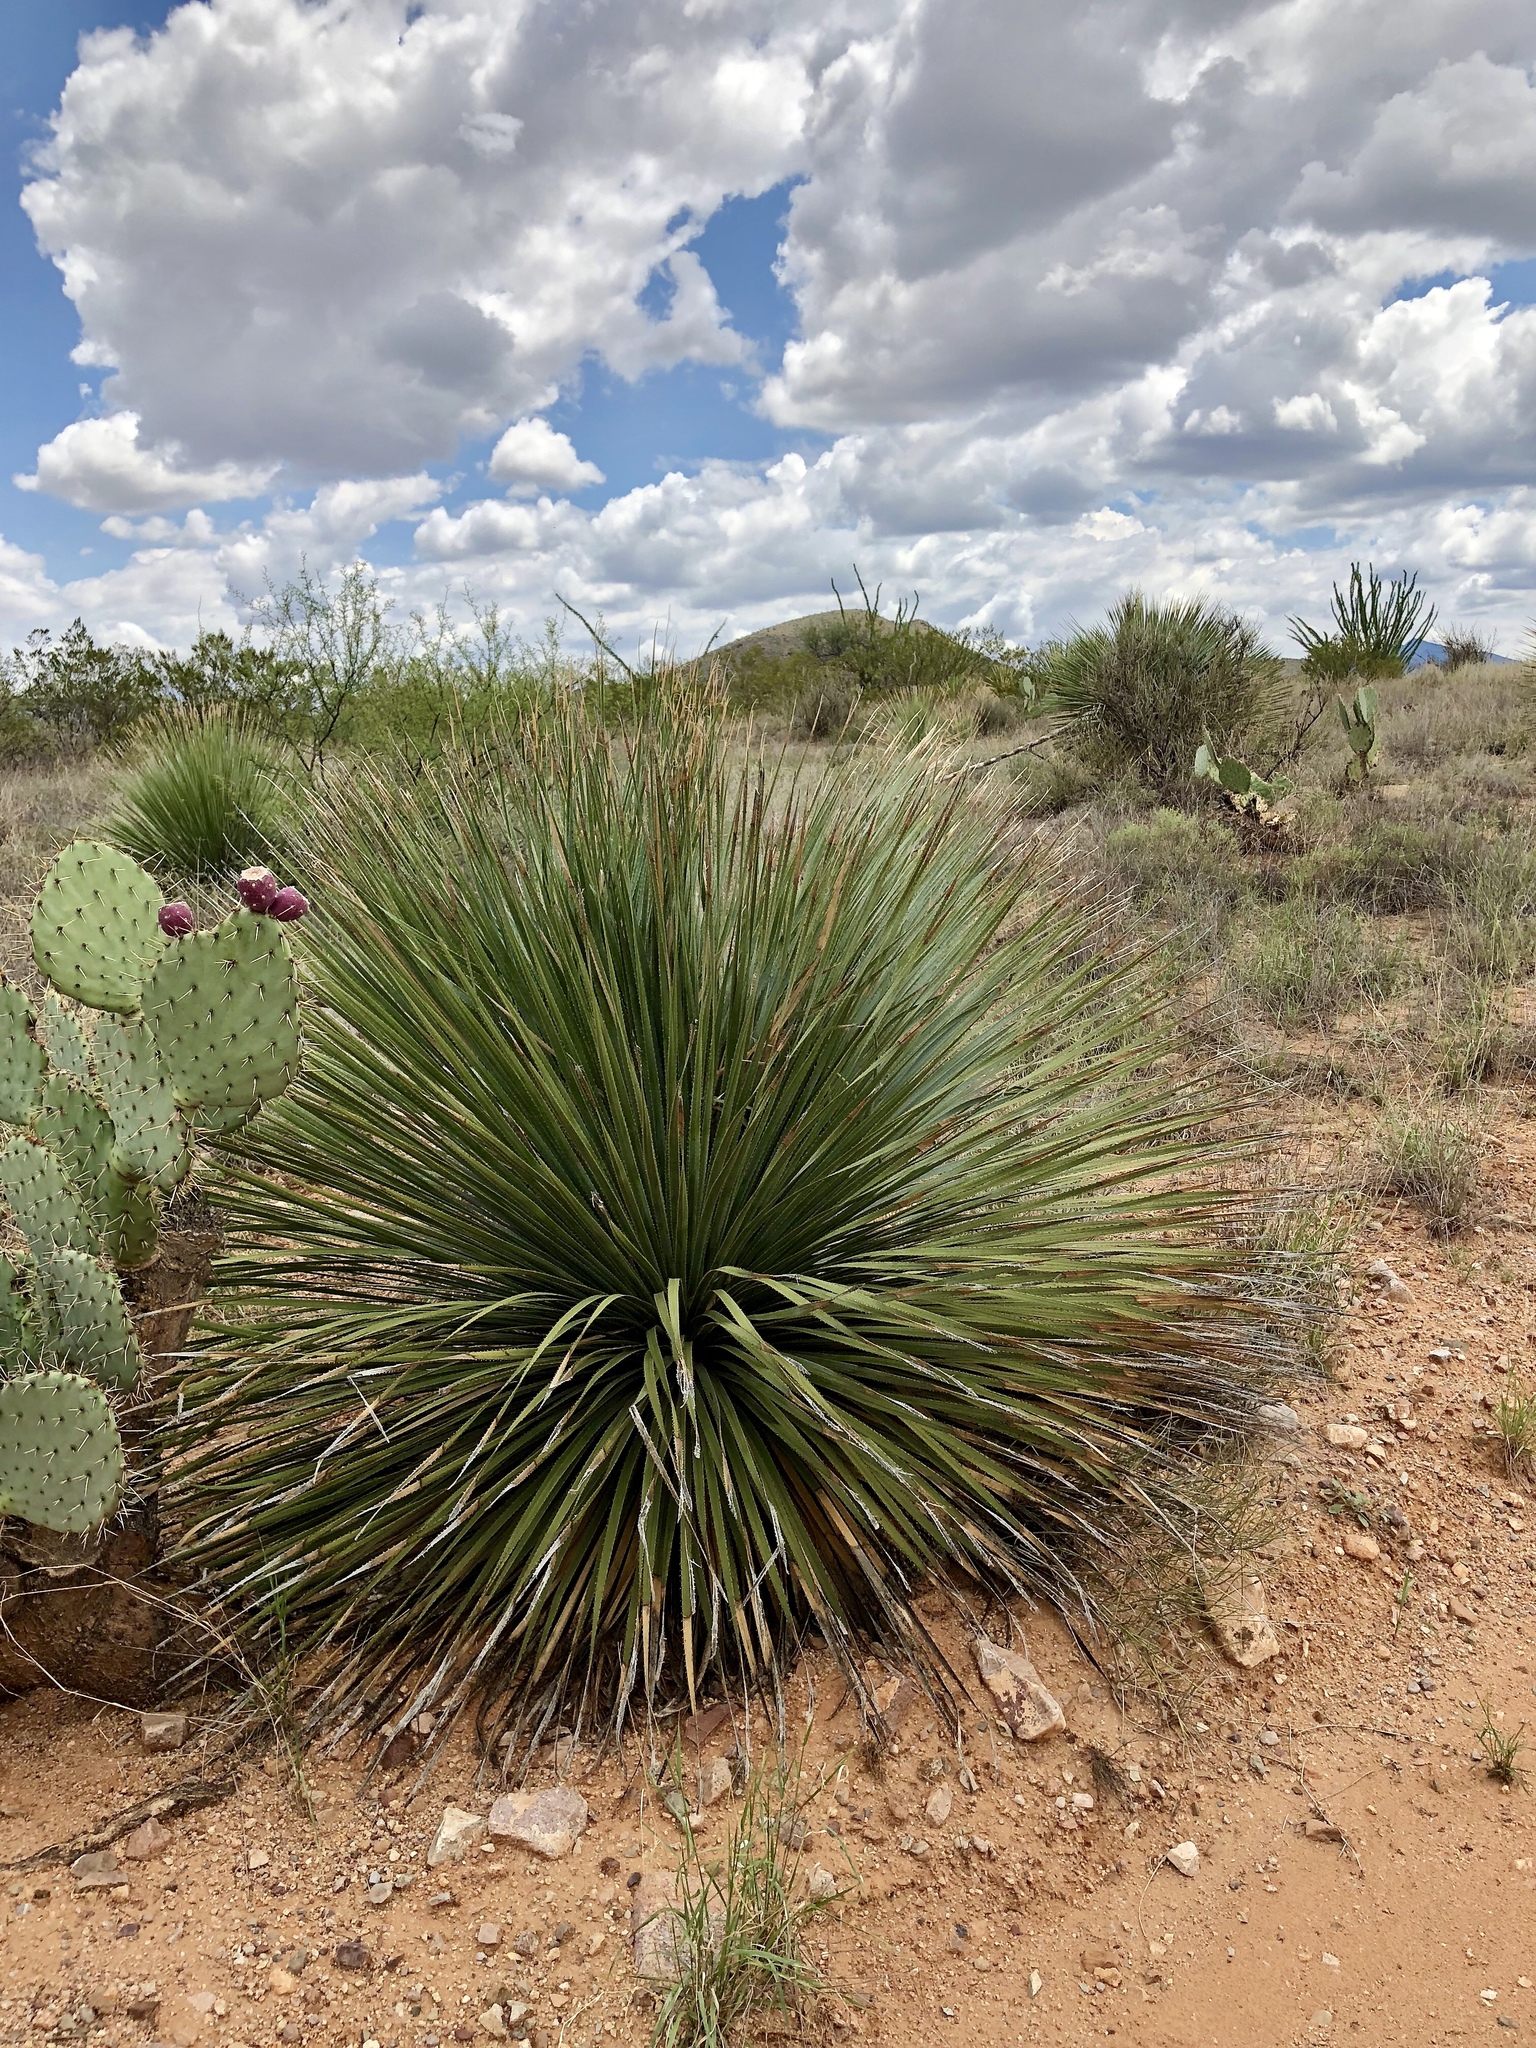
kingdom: Plantae
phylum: Tracheophyta
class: Liliopsida
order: Asparagales
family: Asparagaceae
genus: Dasylirion
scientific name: Dasylirion wheeleri
